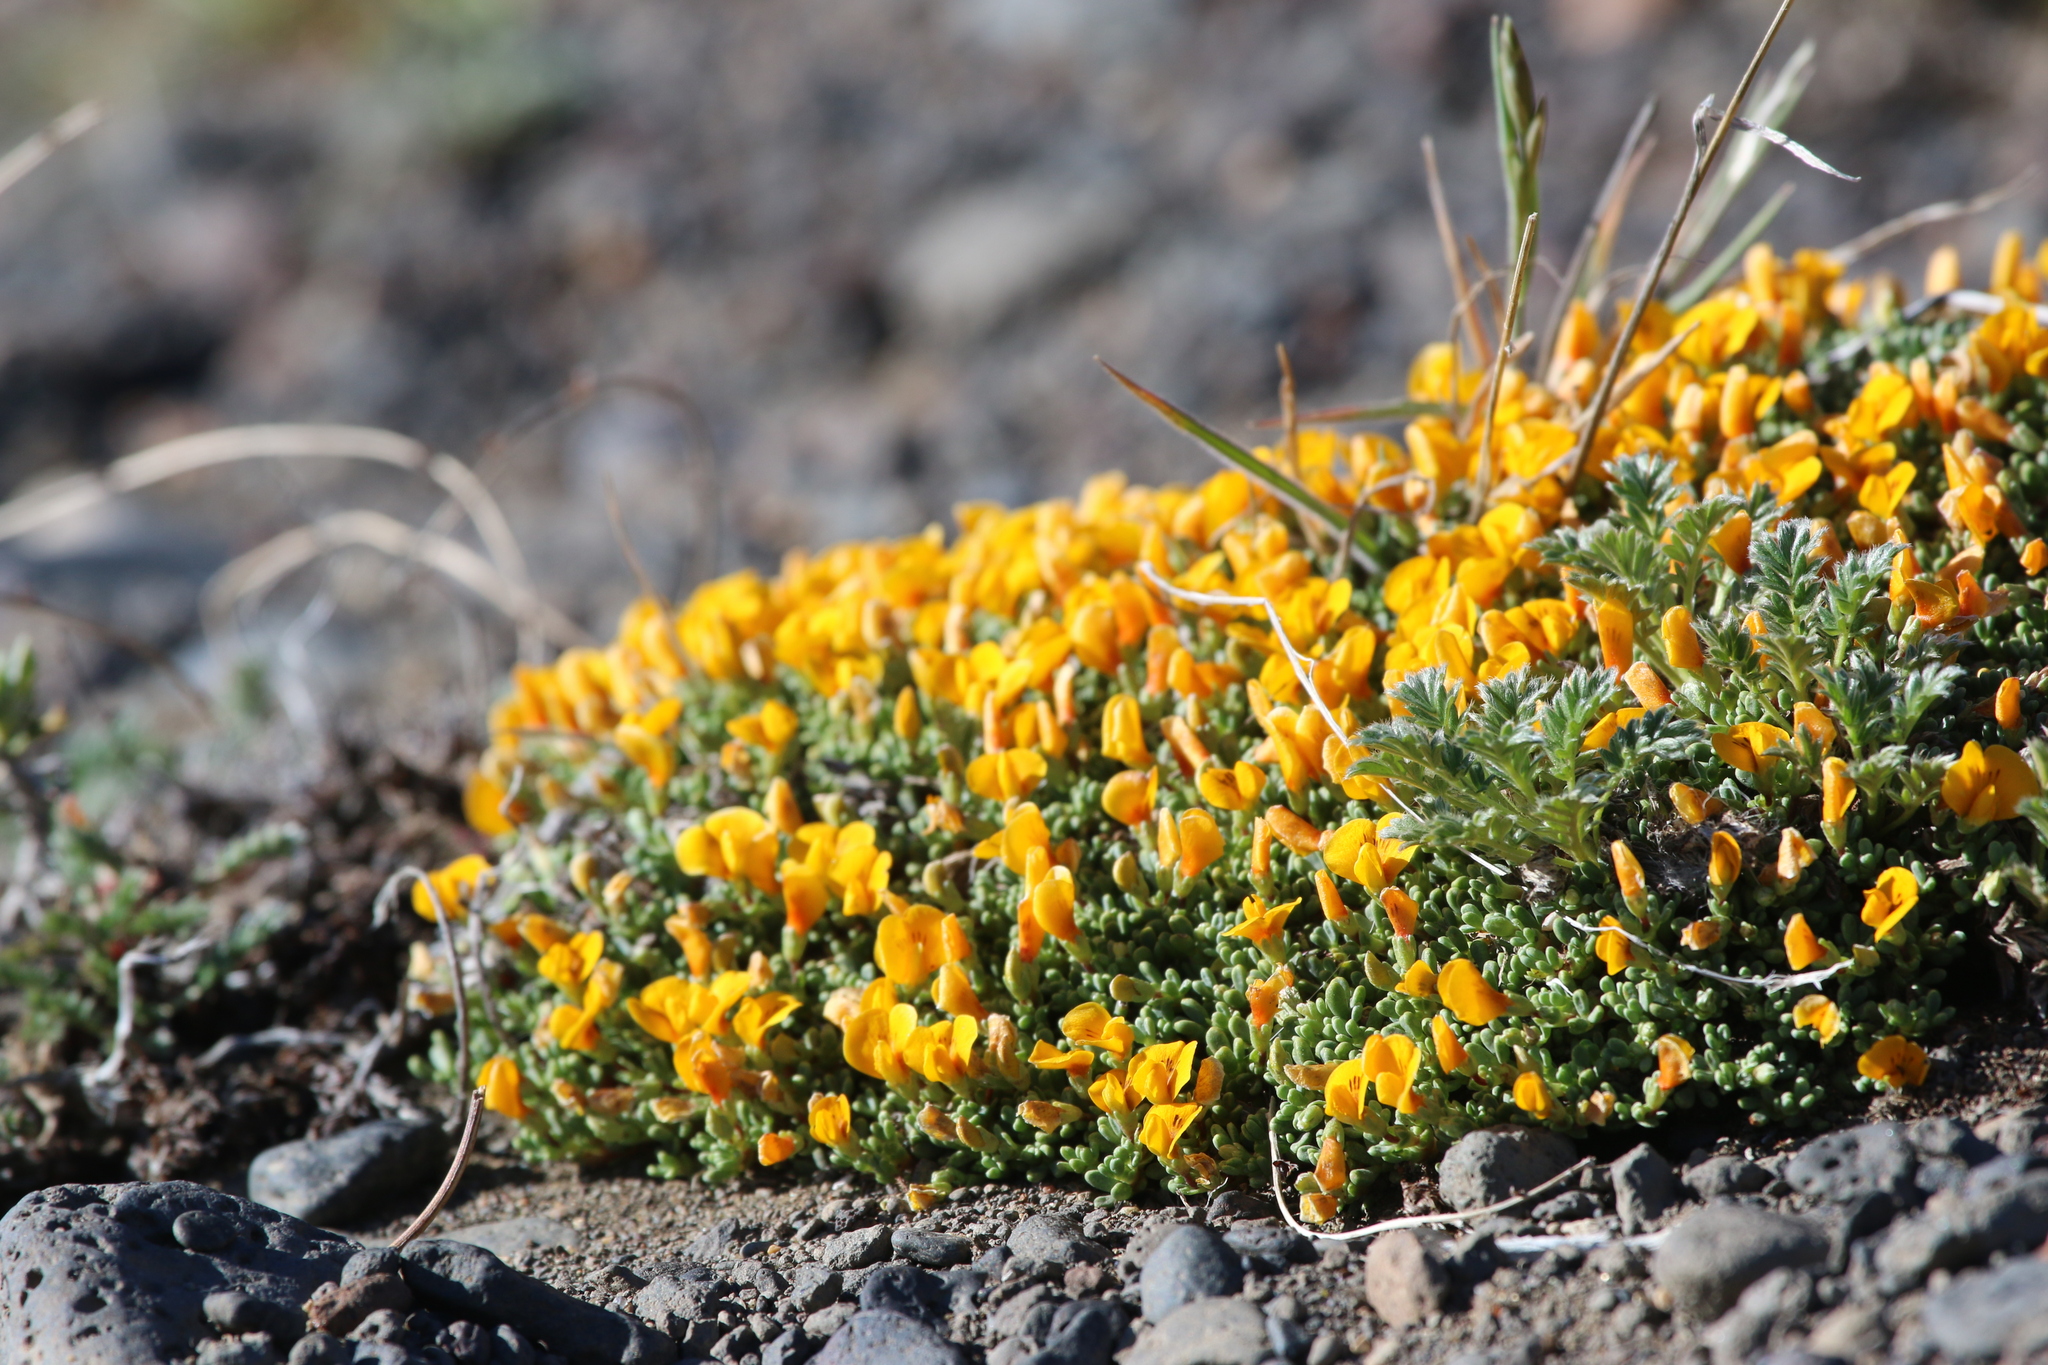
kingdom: Plantae
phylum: Tracheophyta
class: Magnoliopsida
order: Fabales
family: Fabaceae
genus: Adesmia
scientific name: Adesmia salicornioides
